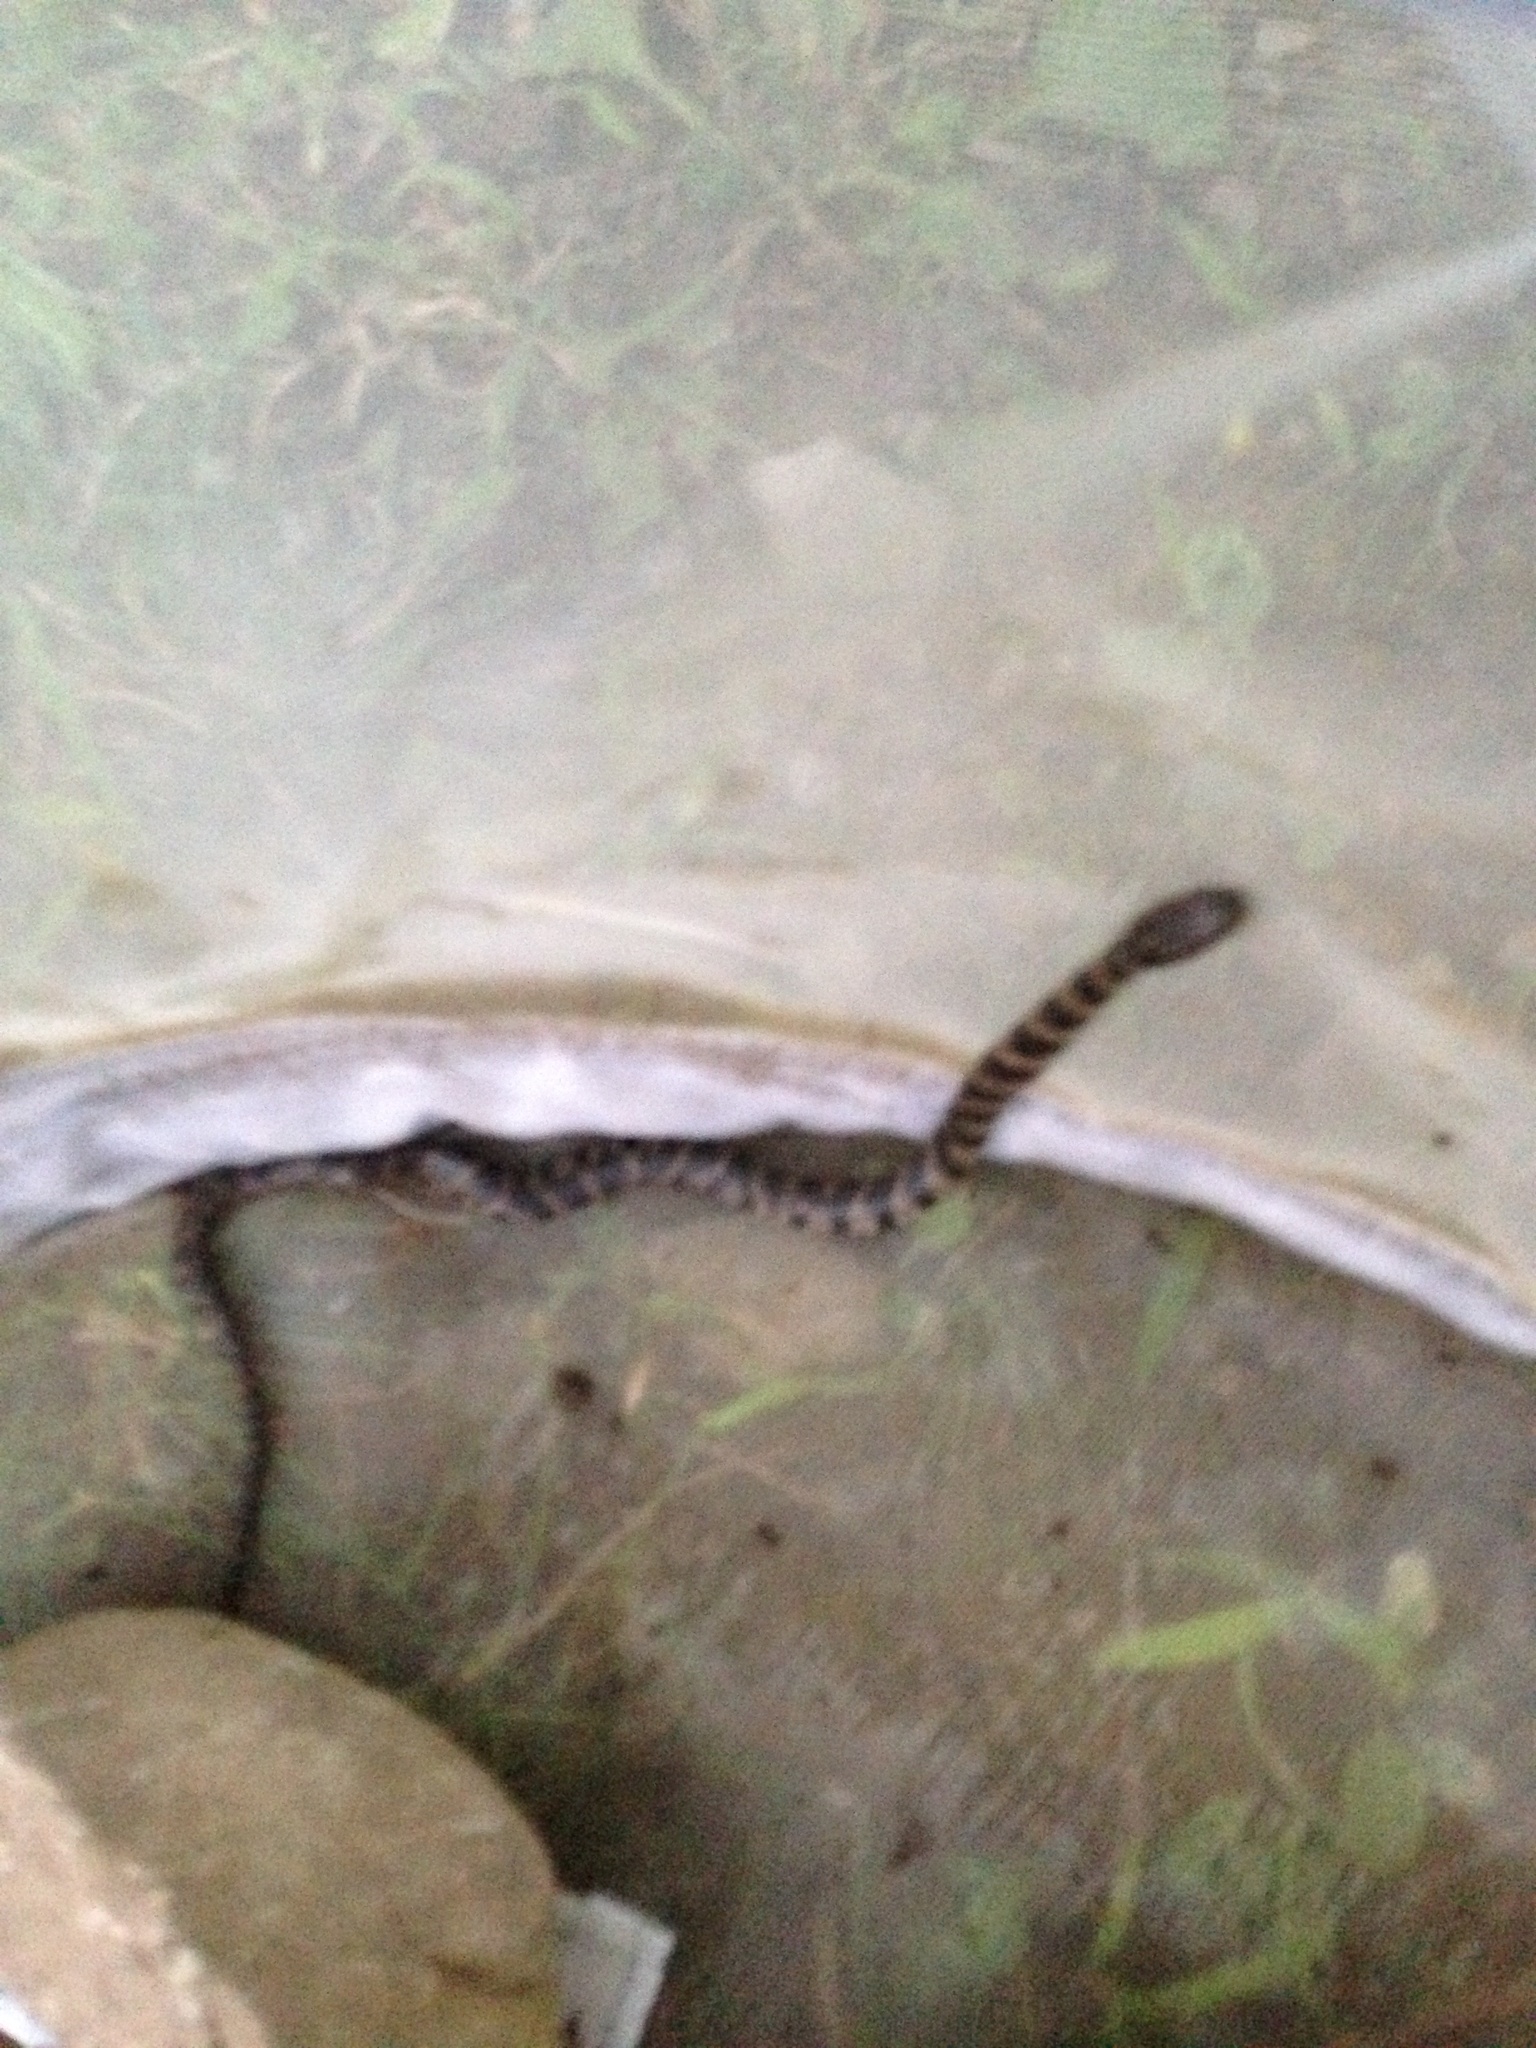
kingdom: Animalia
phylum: Chordata
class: Squamata
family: Colubridae
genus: Nerodia
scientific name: Nerodia sipedon
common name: Northern water snake
